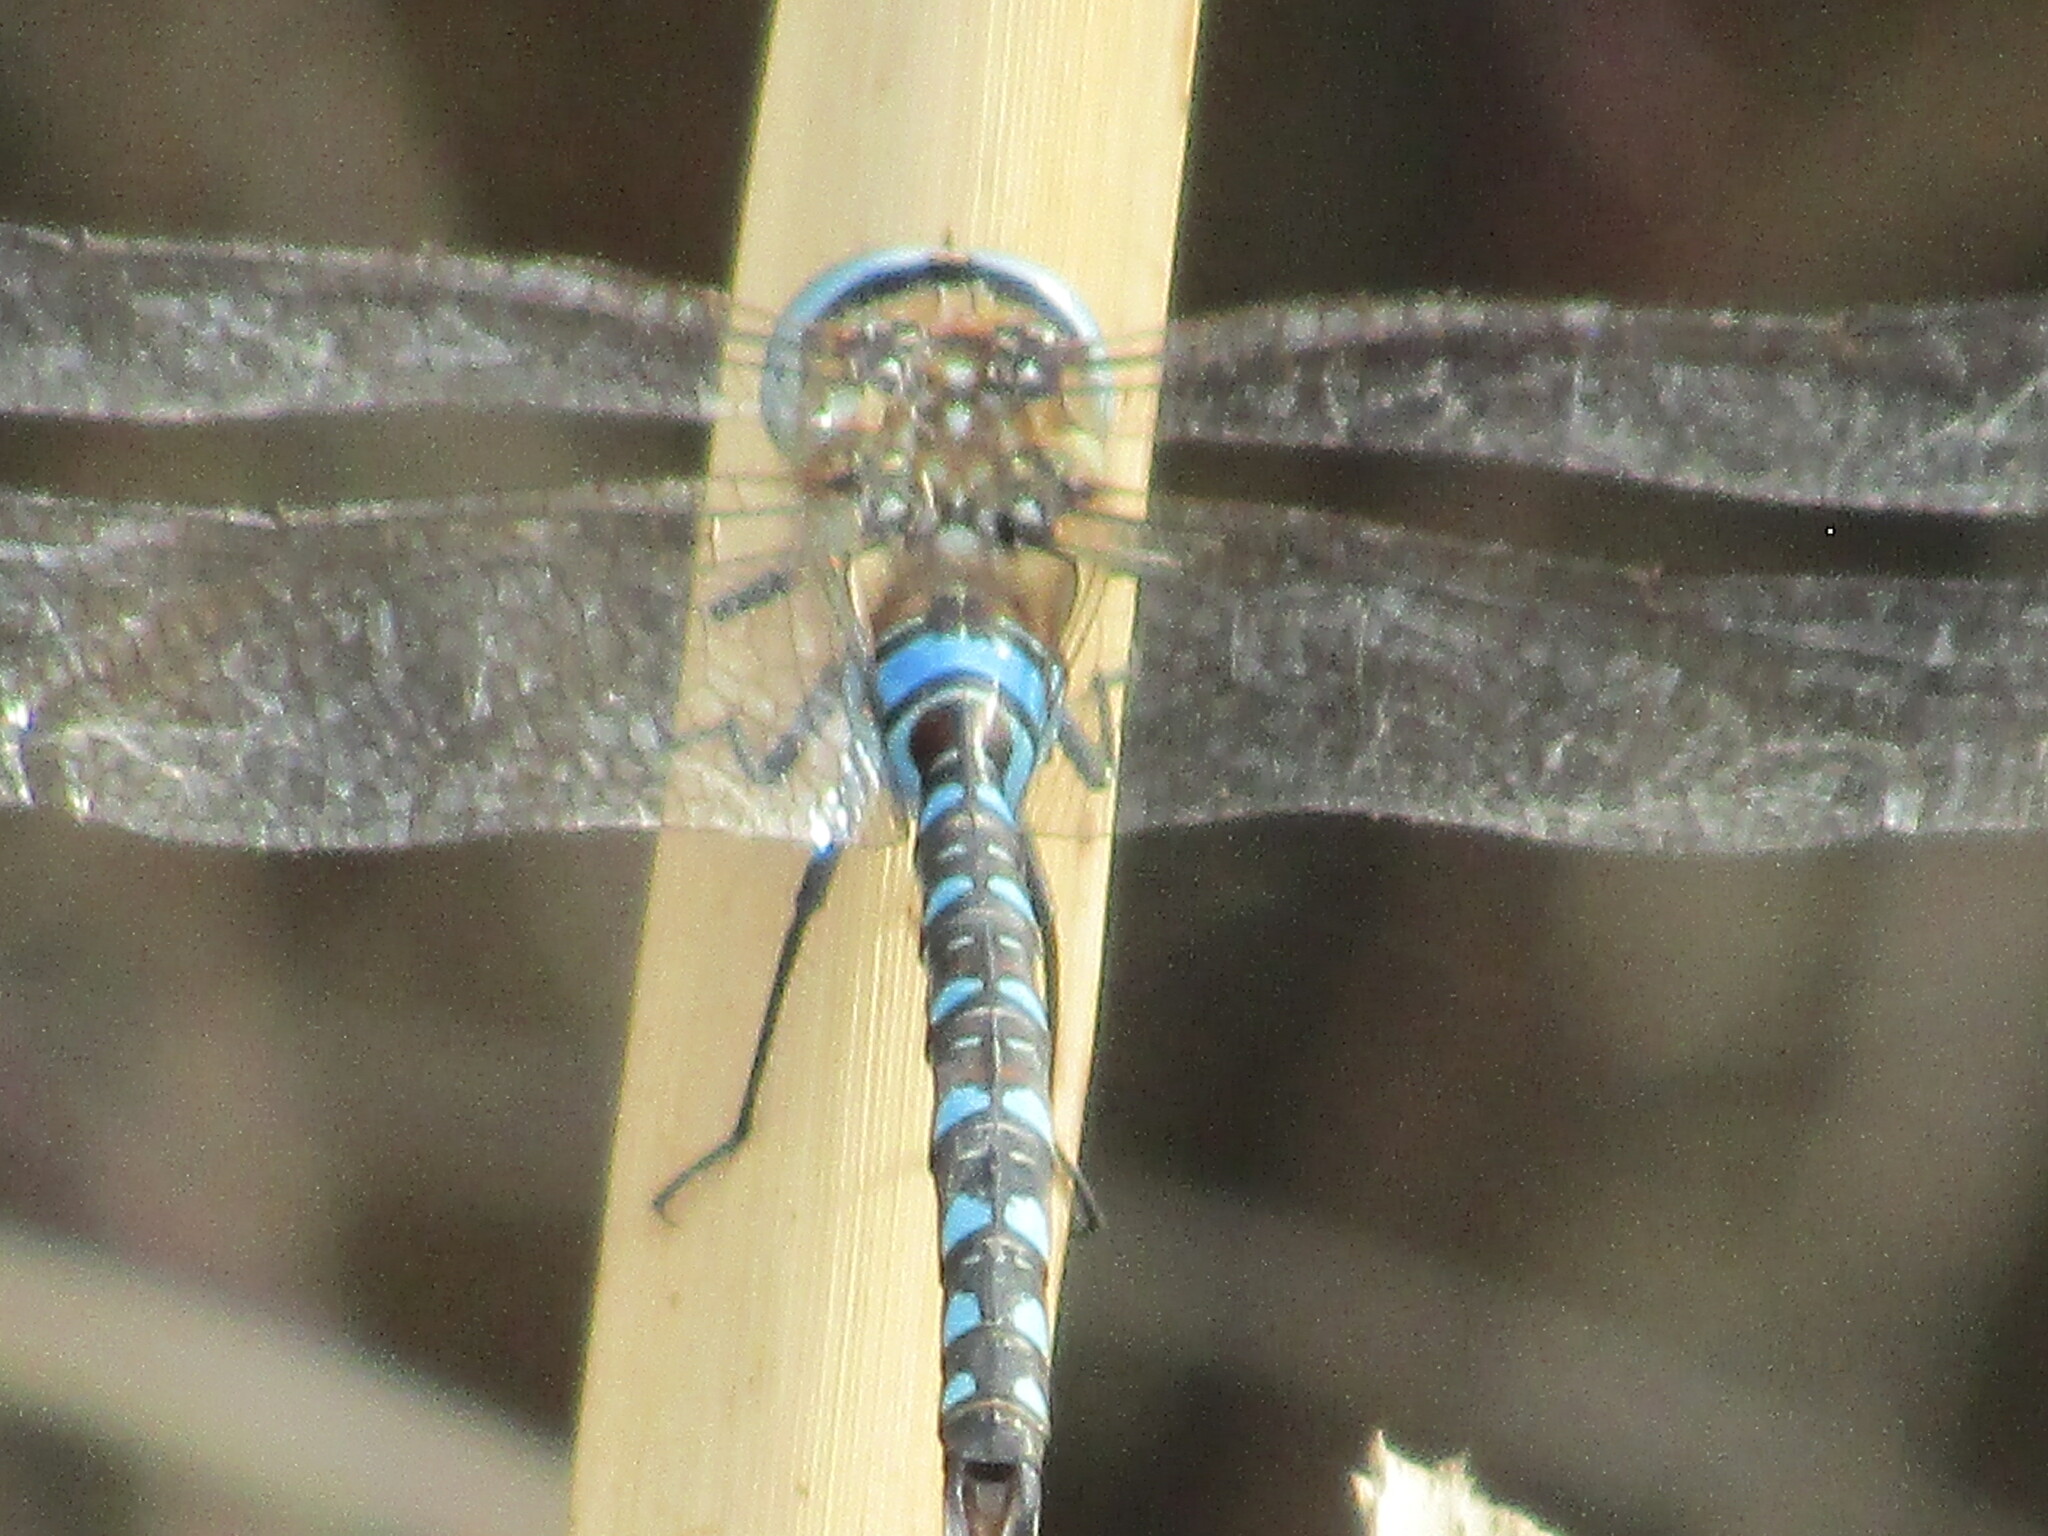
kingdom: Animalia
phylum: Arthropoda
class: Insecta
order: Odonata
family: Aeshnidae
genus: Aeshna
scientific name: Aeshna mixta
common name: Migrant hawker
